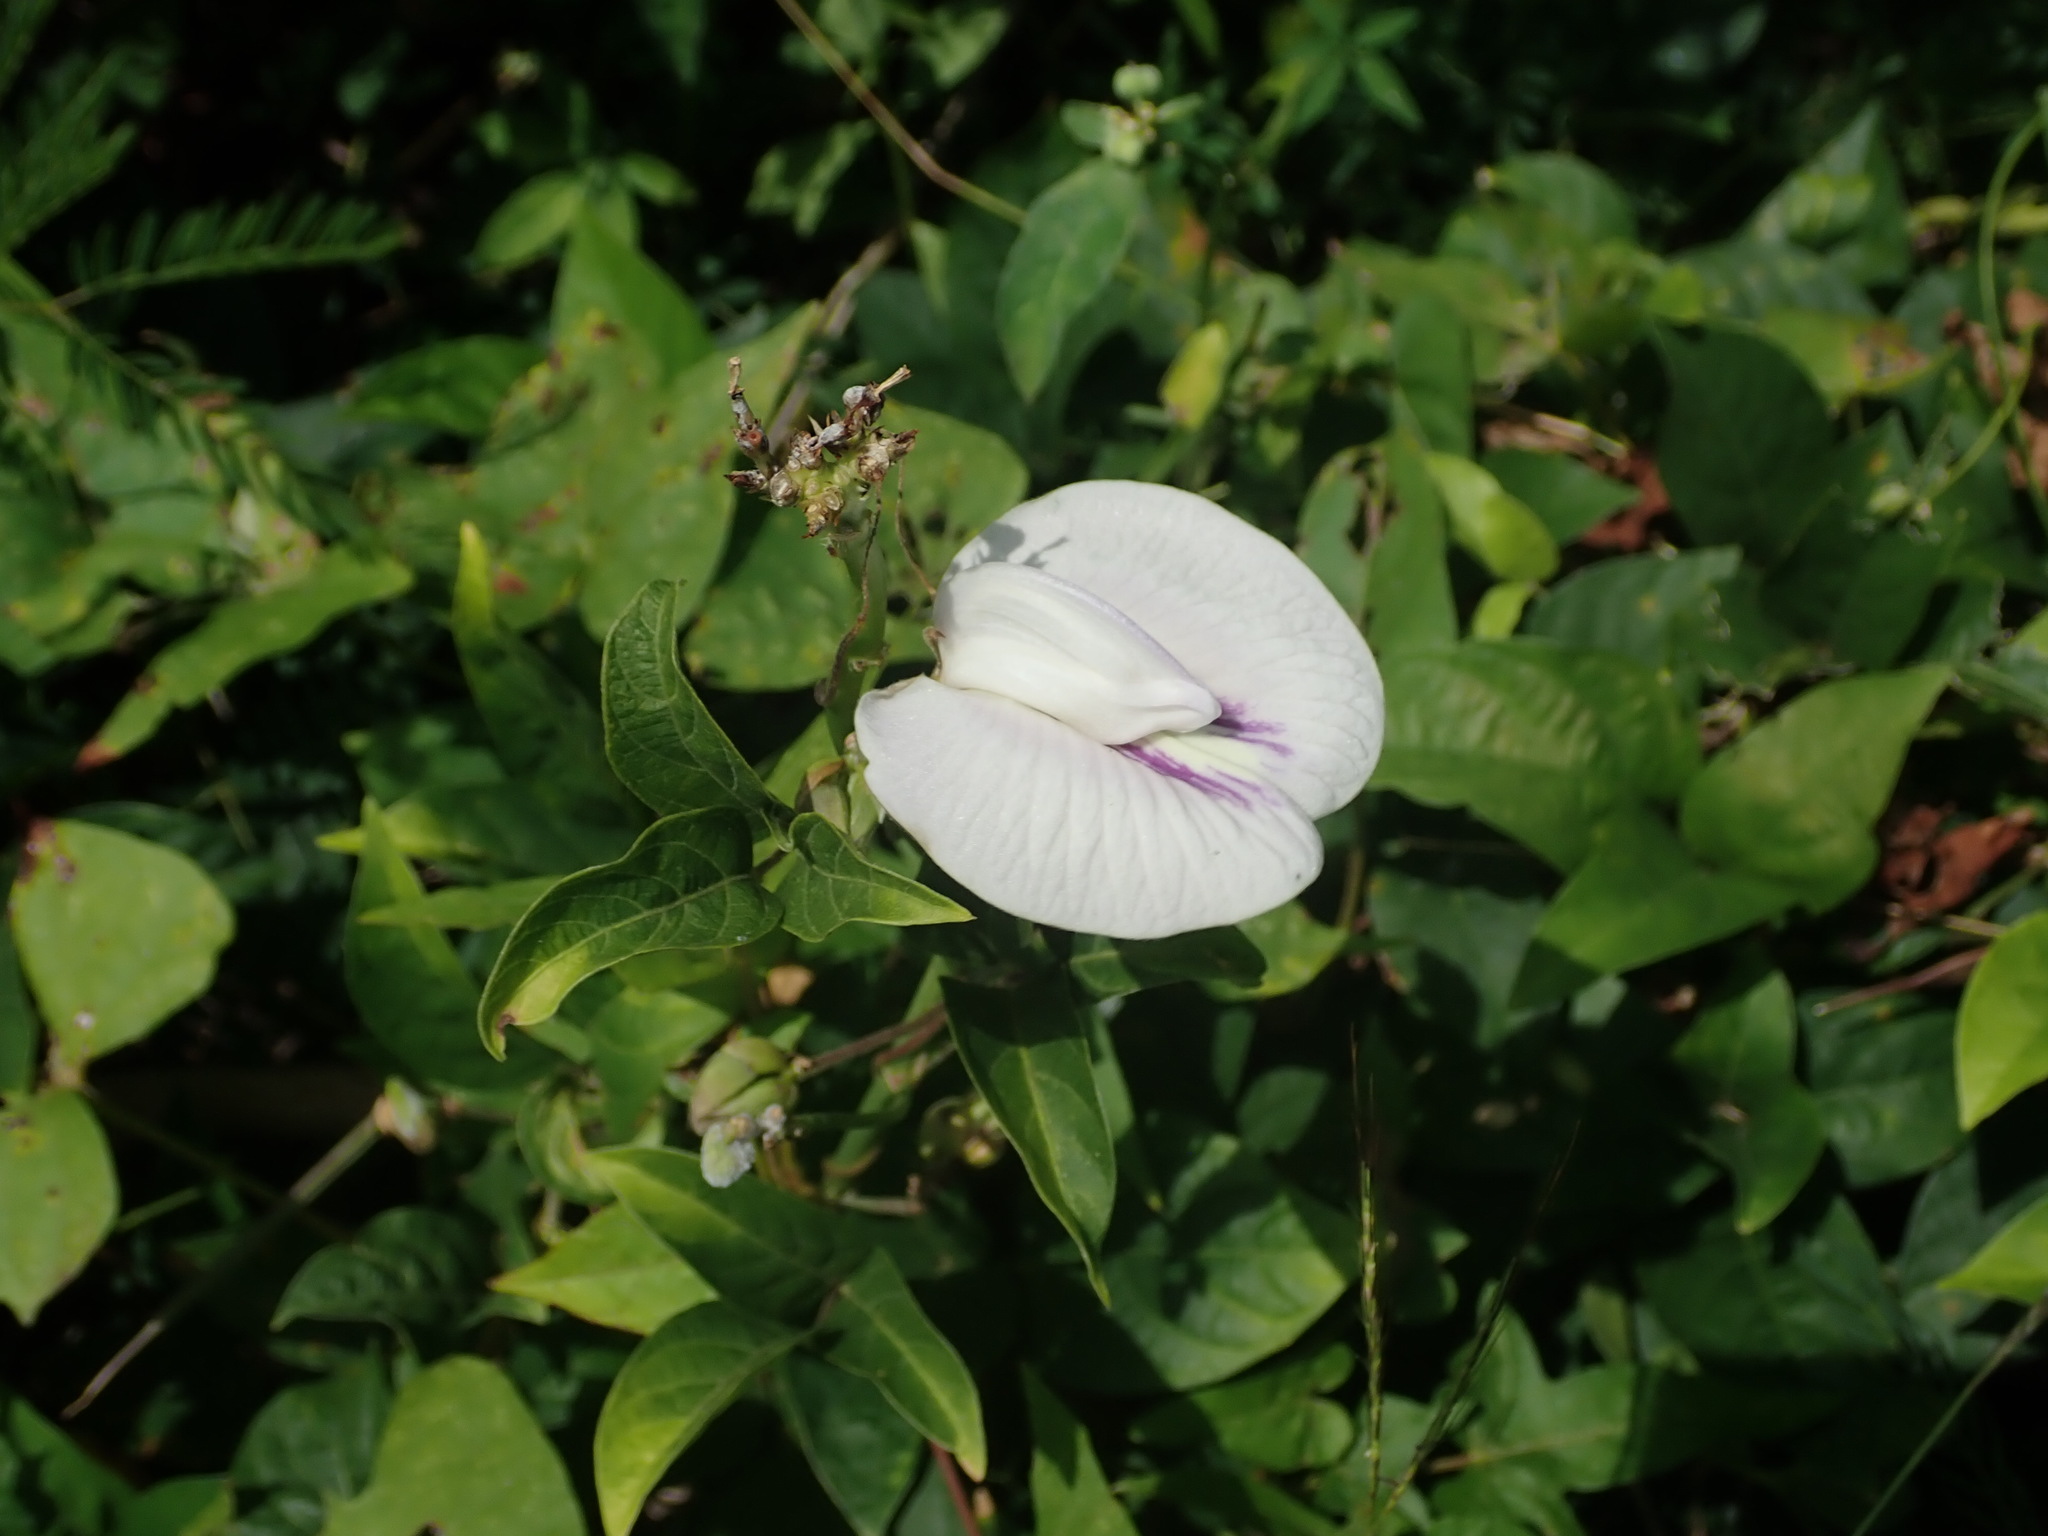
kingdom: Plantae
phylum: Tracheophyta
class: Magnoliopsida
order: Fabales
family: Fabaceae
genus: Centrosema
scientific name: Centrosema virginianum
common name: Butterfly-pea
